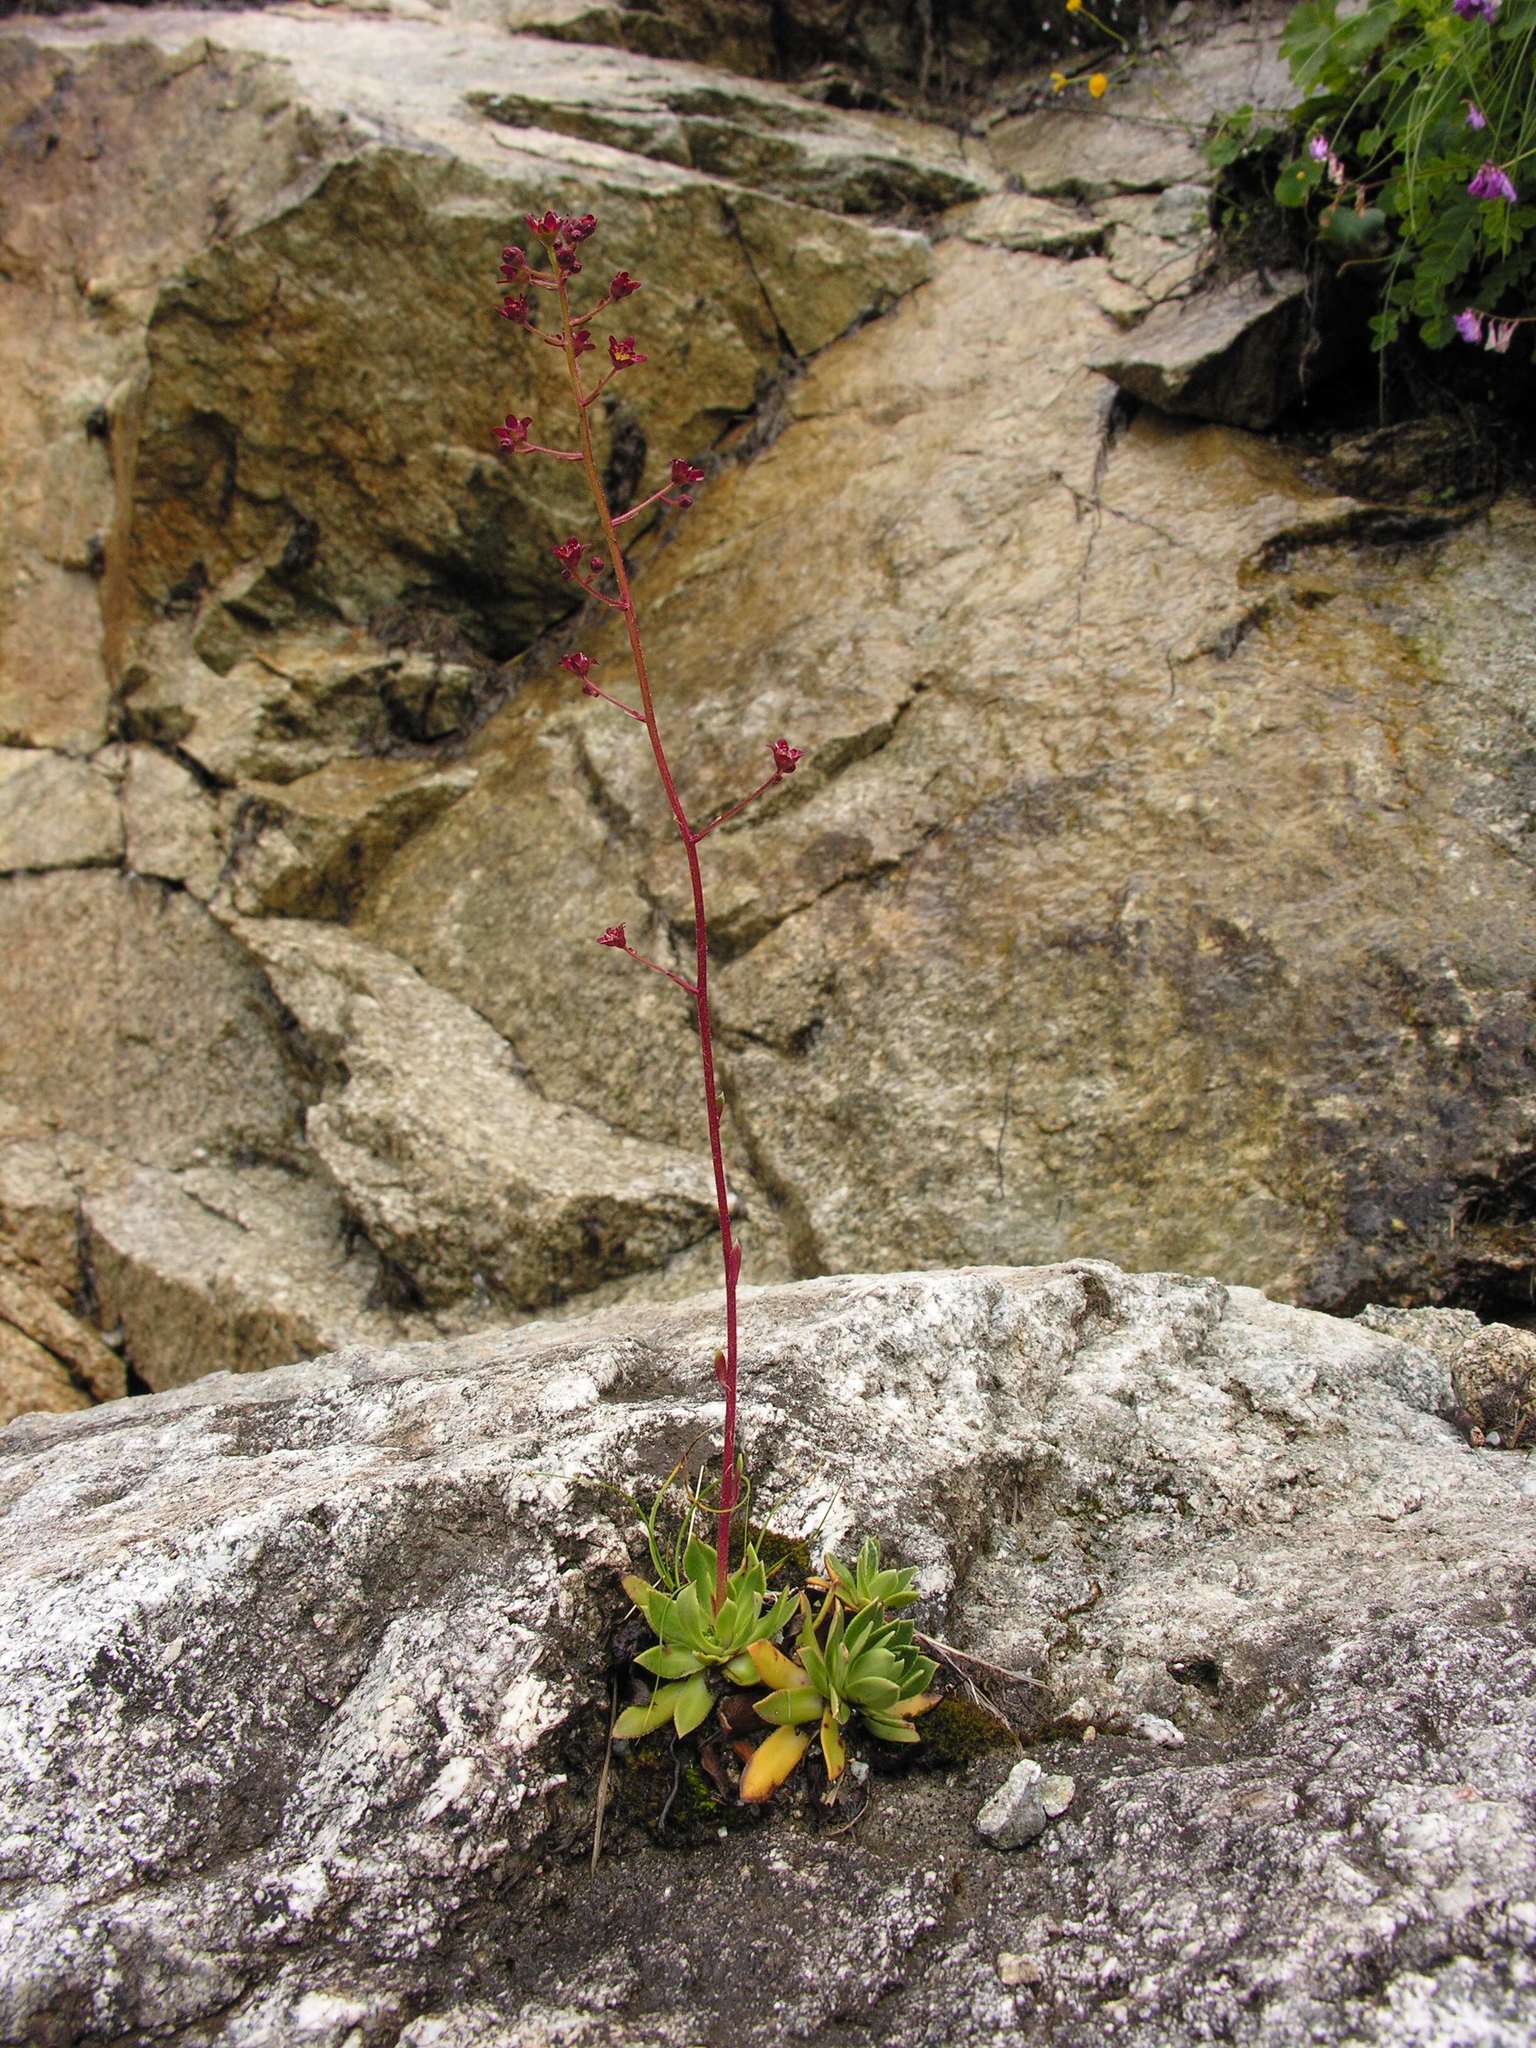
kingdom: Plantae
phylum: Tracheophyta
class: Magnoliopsida
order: Saxifragales
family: Saxifragaceae
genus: Saxifraga
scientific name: Saxifraga kolenatiana
